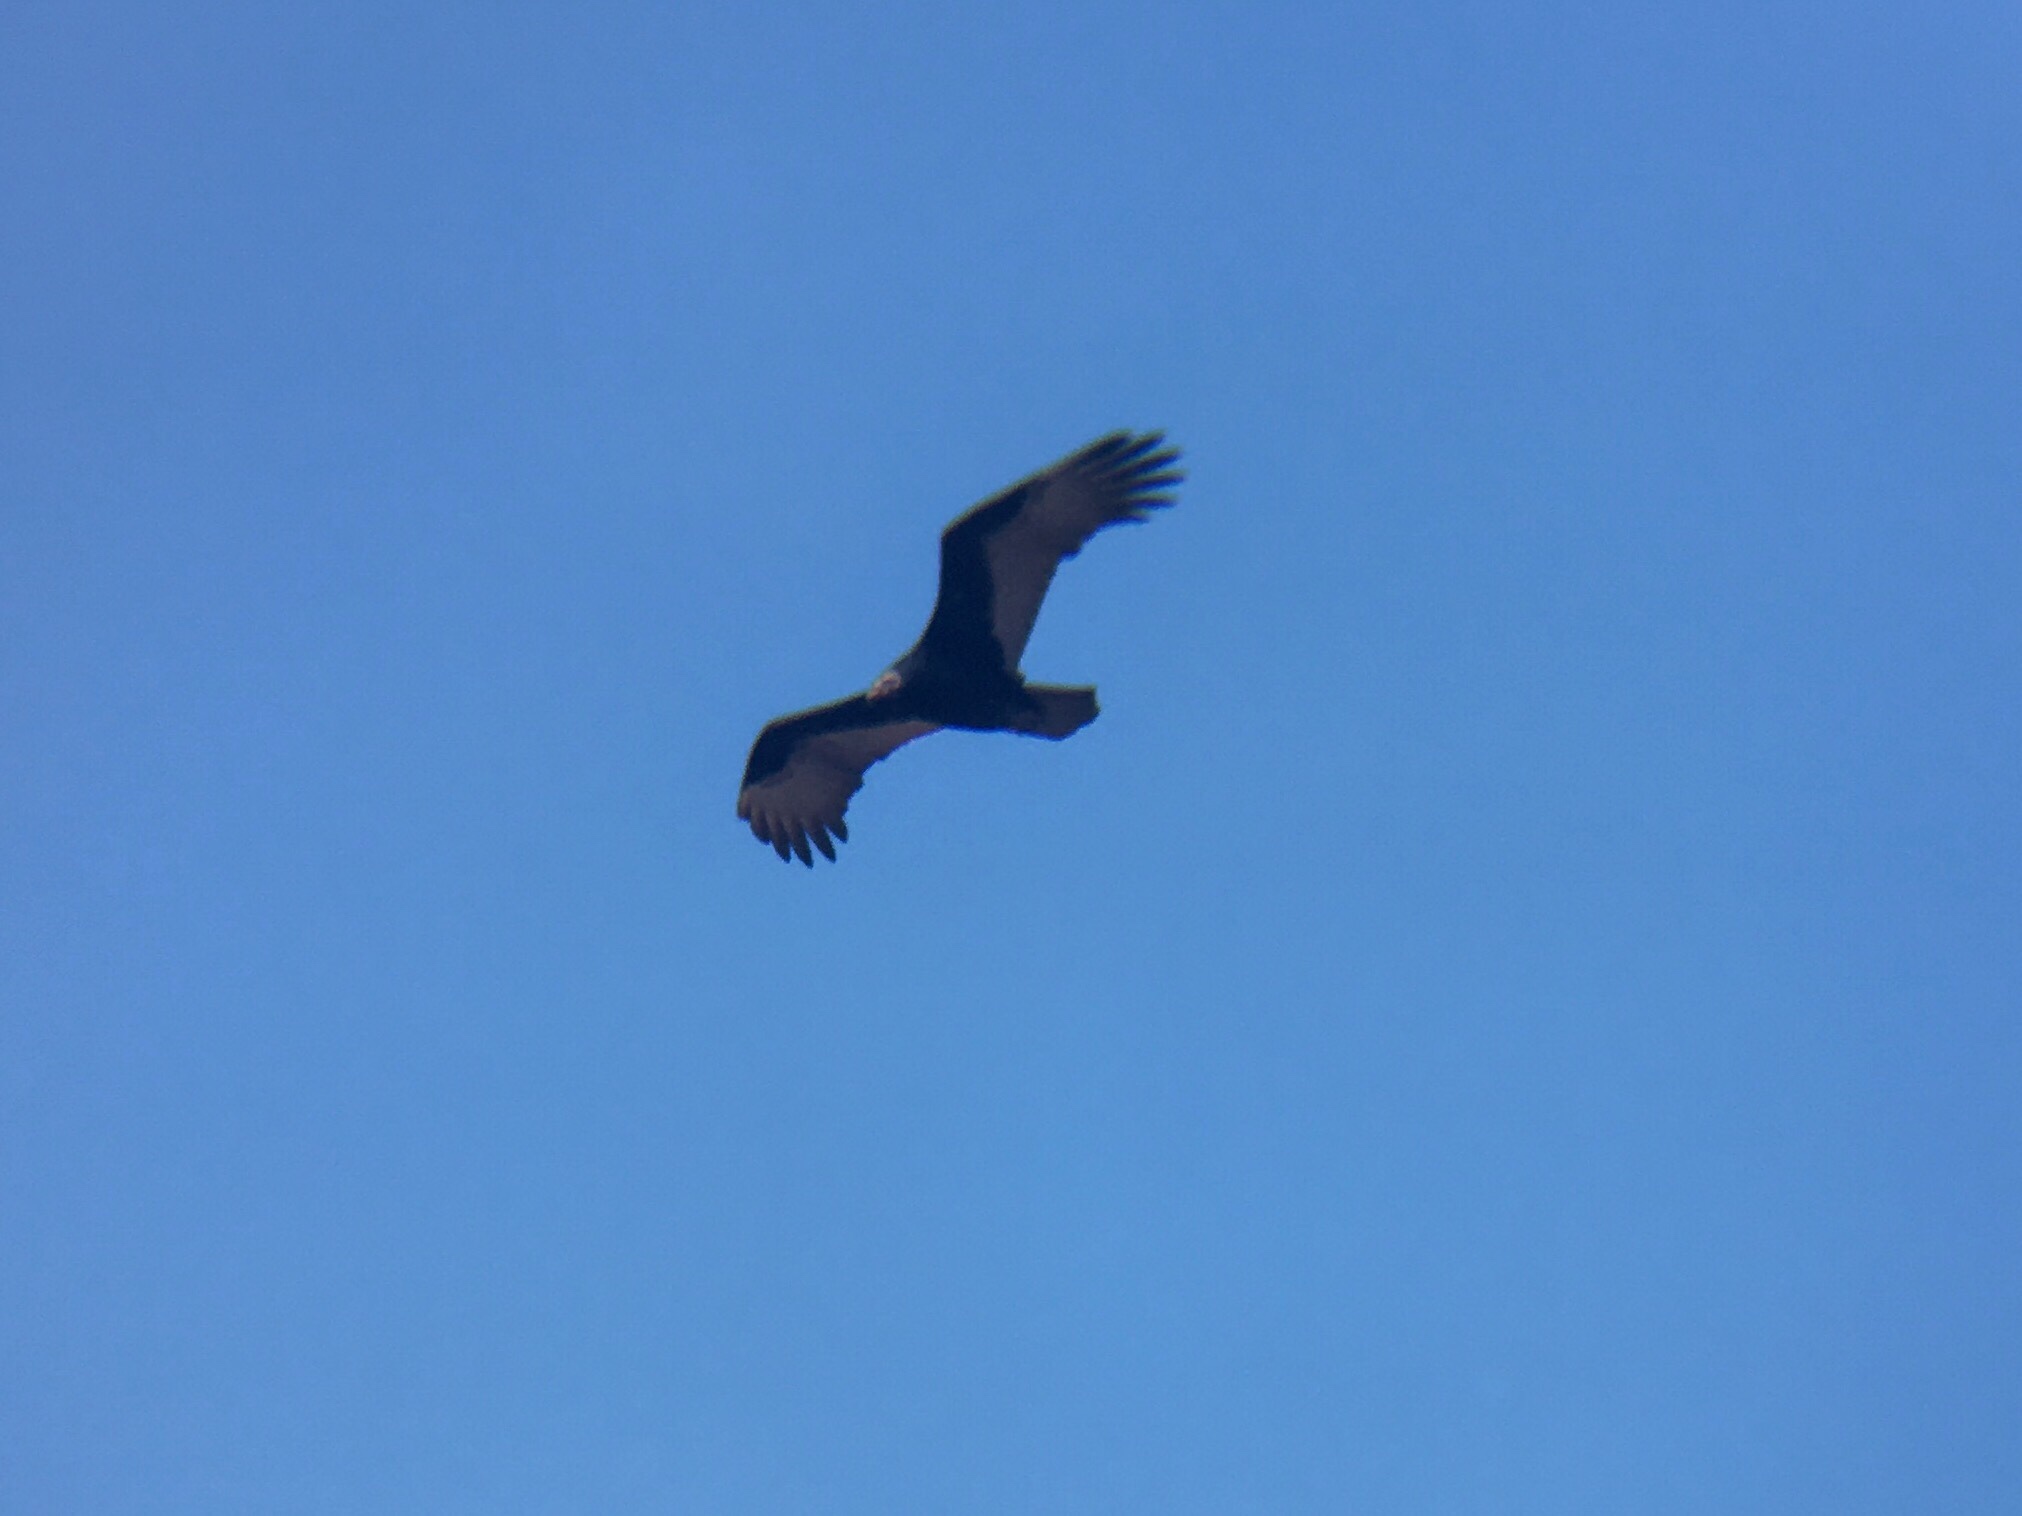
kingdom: Animalia
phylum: Chordata
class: Aves
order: Accipitriformes
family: Cathartidae
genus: Cathartes
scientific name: Cathartes aura
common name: Turkey vulture
